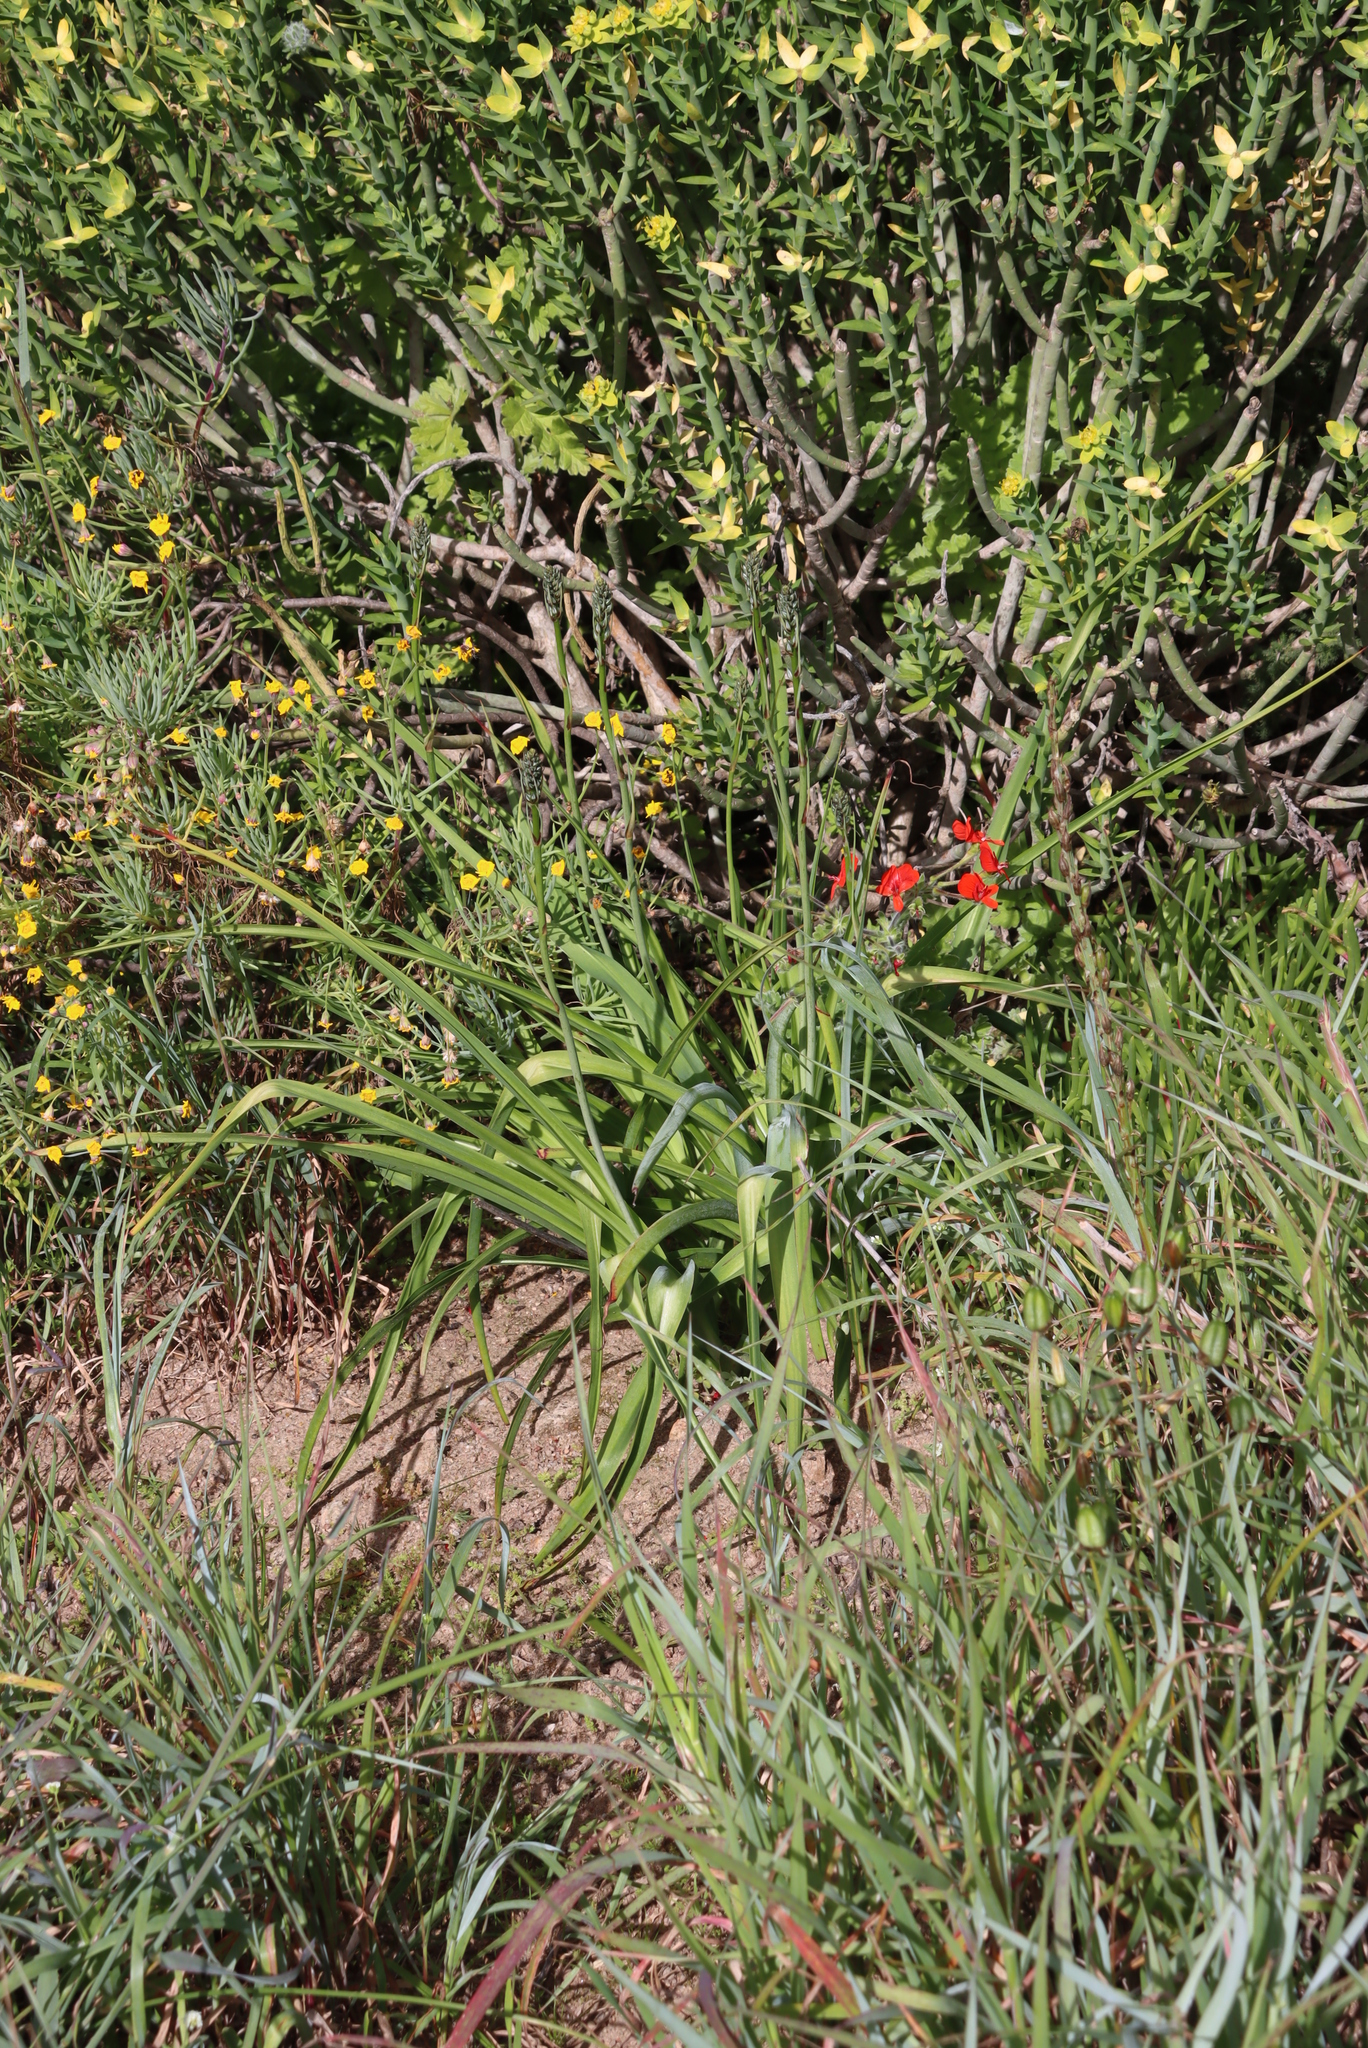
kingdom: Plantae
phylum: Tracheophyta
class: Magnoliopsida
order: Geraniales
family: Geraniaceae
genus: Pelargonium
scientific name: Pelargonium fulgidum
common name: Celandine-leaf pelargonium
